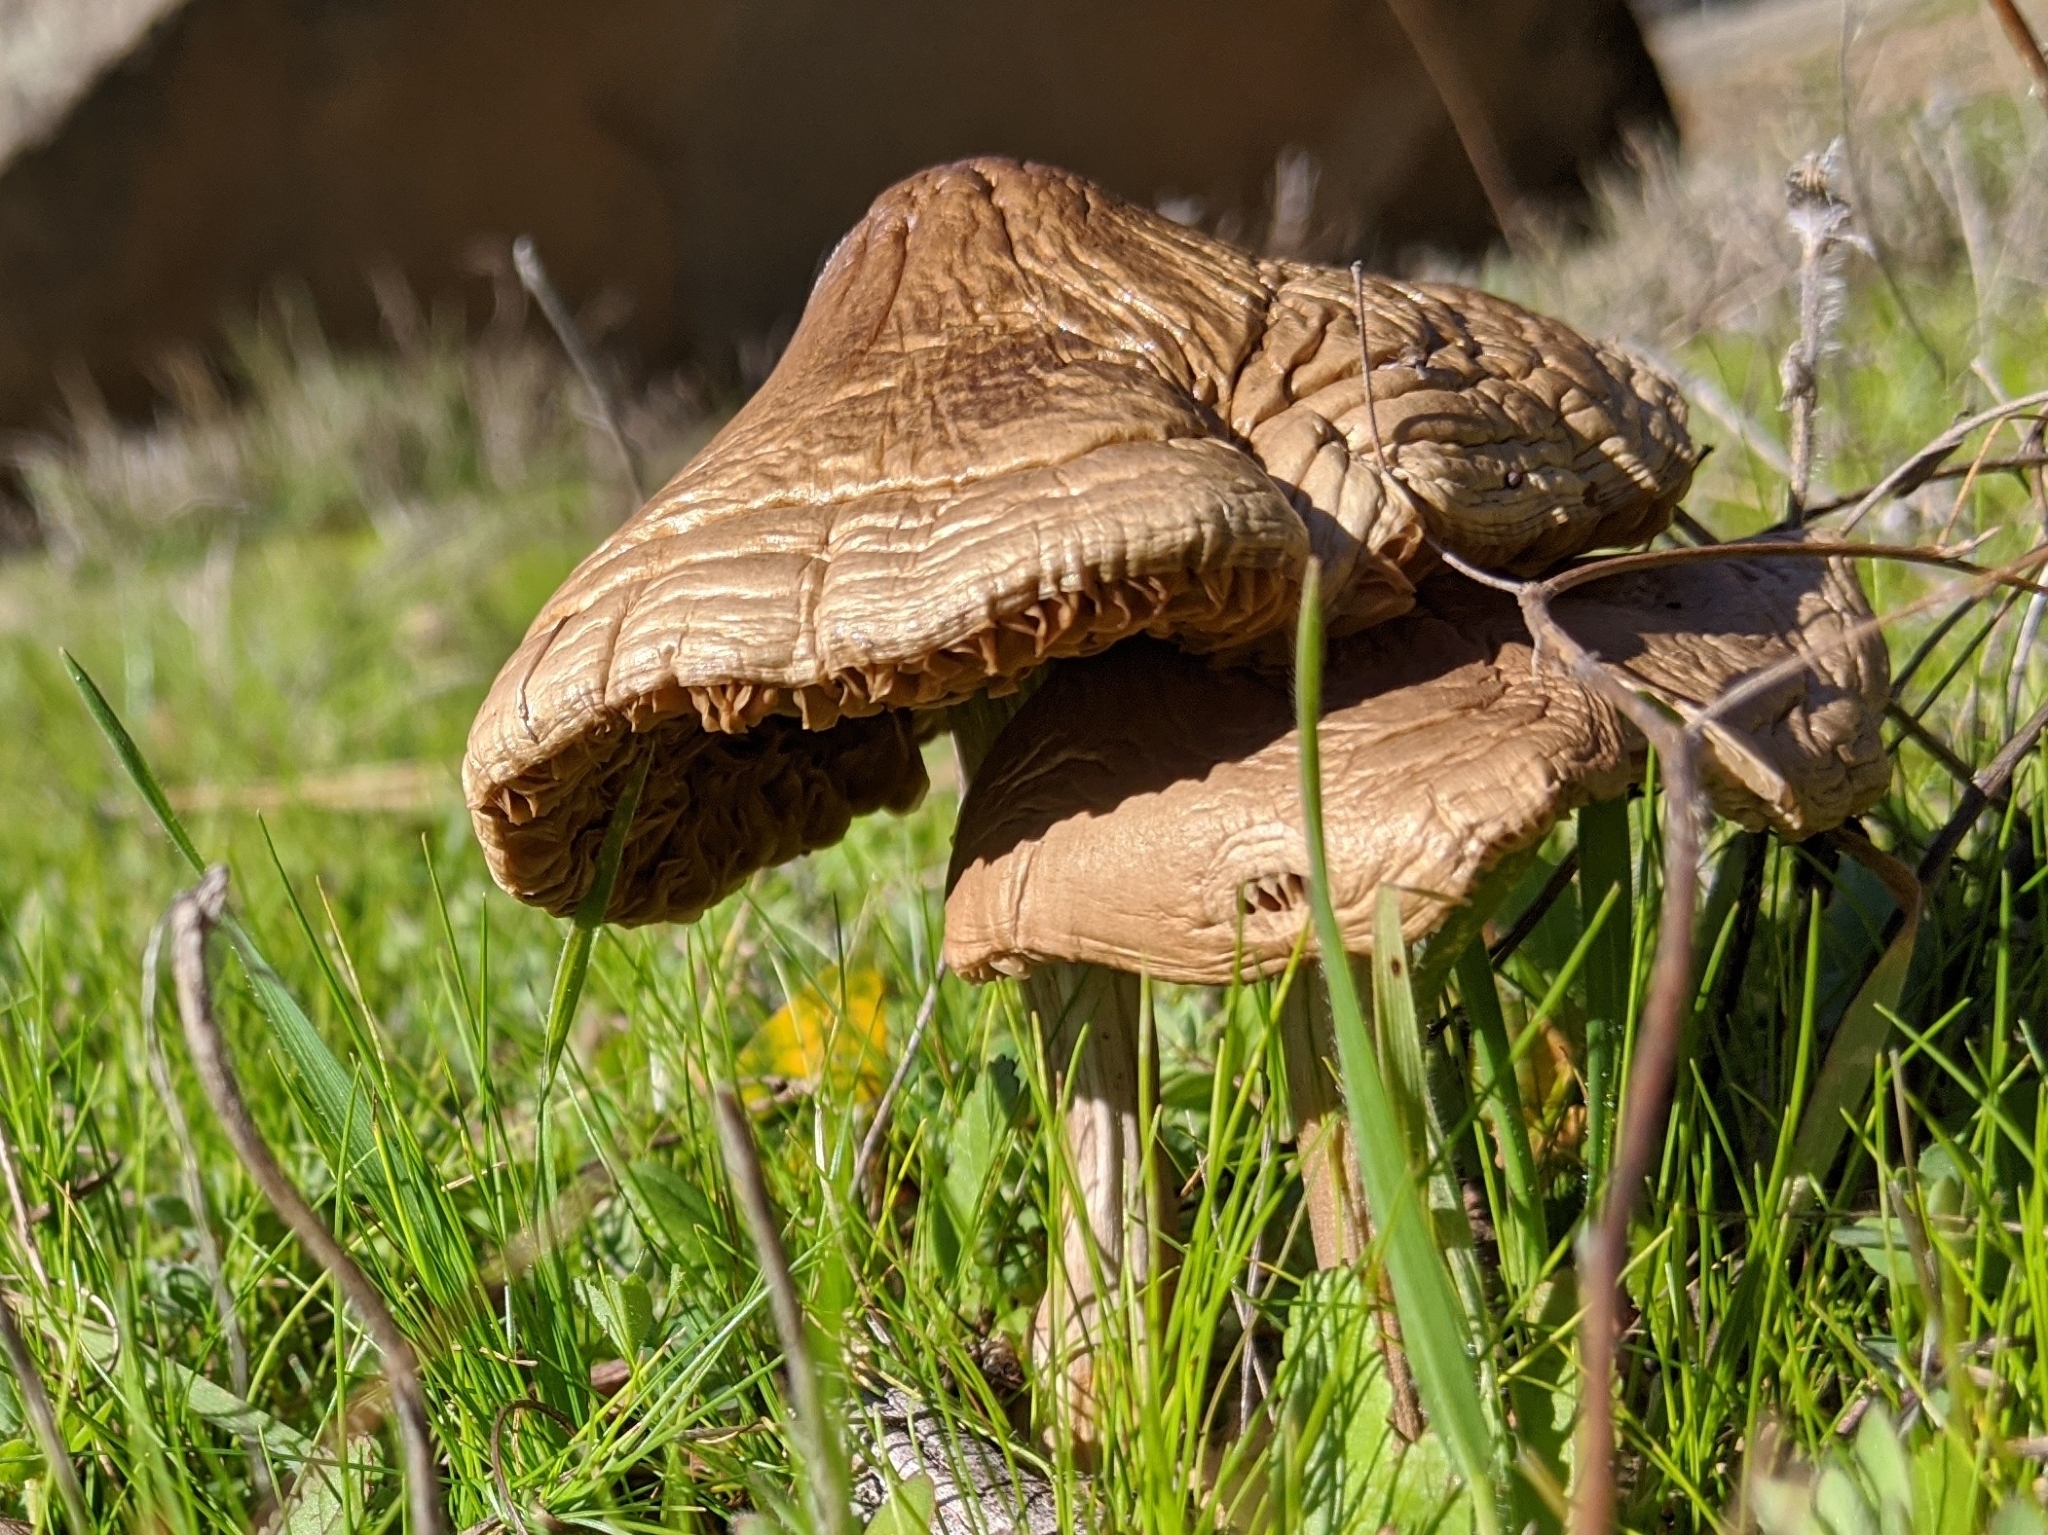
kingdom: Fungi
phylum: Basidiomycota
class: Agaricomycetes
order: Agaricales
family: Pluteaceae
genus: Volvopluteus
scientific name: Volvopluteus gloiocephalus
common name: Stubble rosegill
